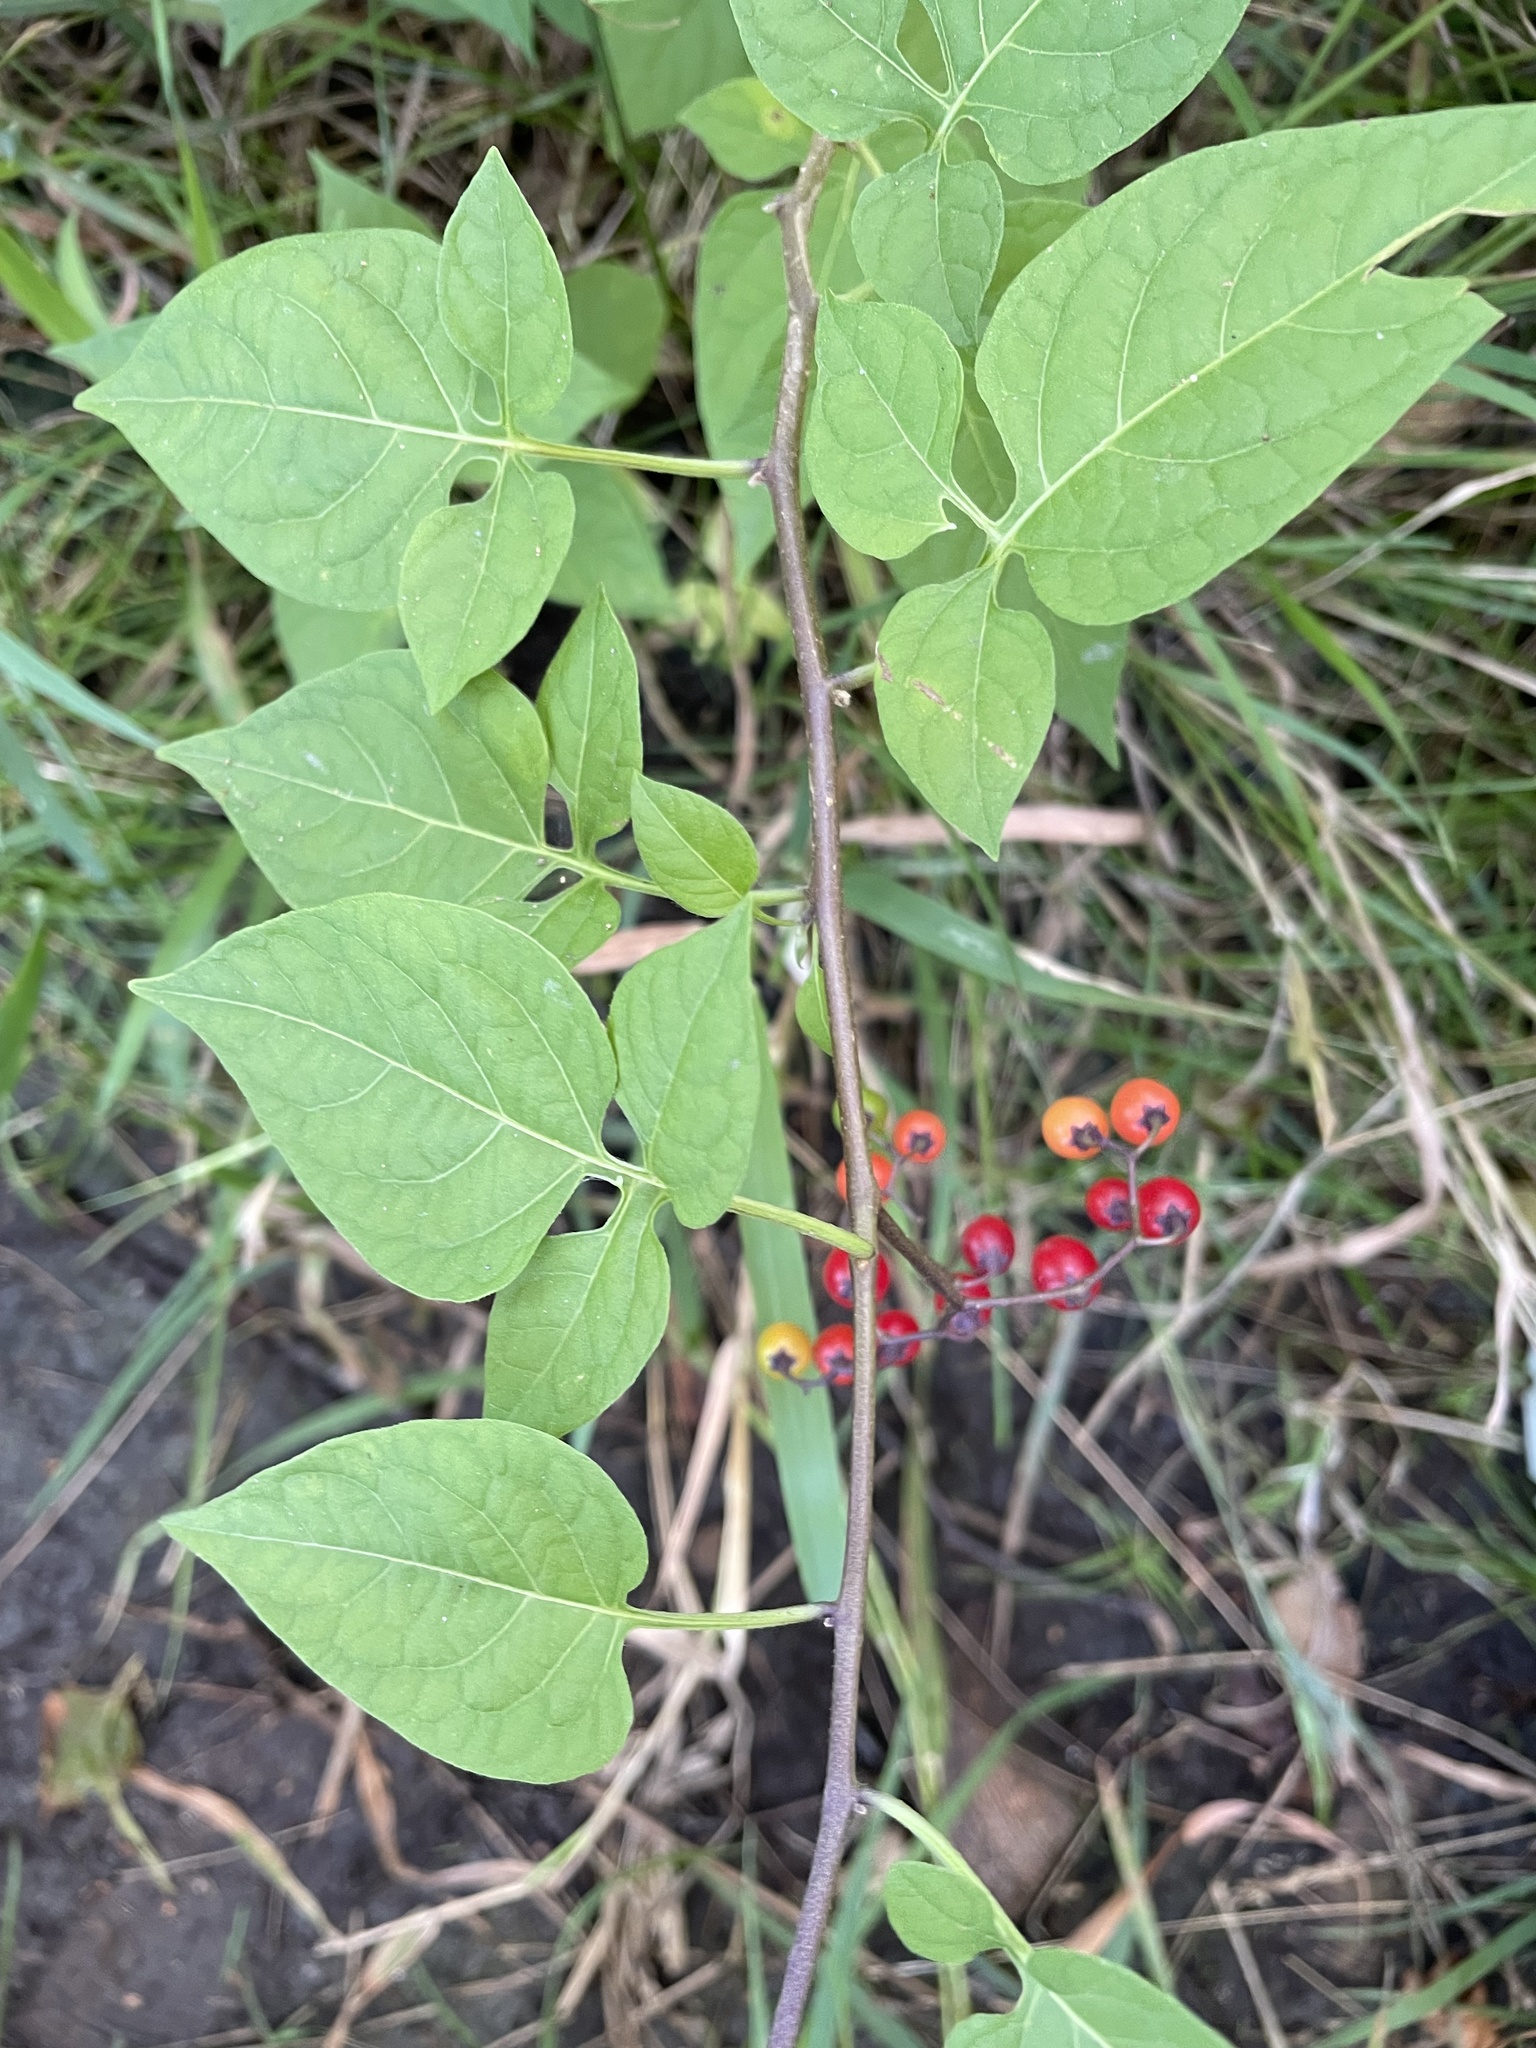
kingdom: Plantae
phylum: Tracheophyta
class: Magnoliopsida
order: Solanales
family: Solanaceae
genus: Solanum
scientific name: Solanum dulcamara
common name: Climbing nightshade
